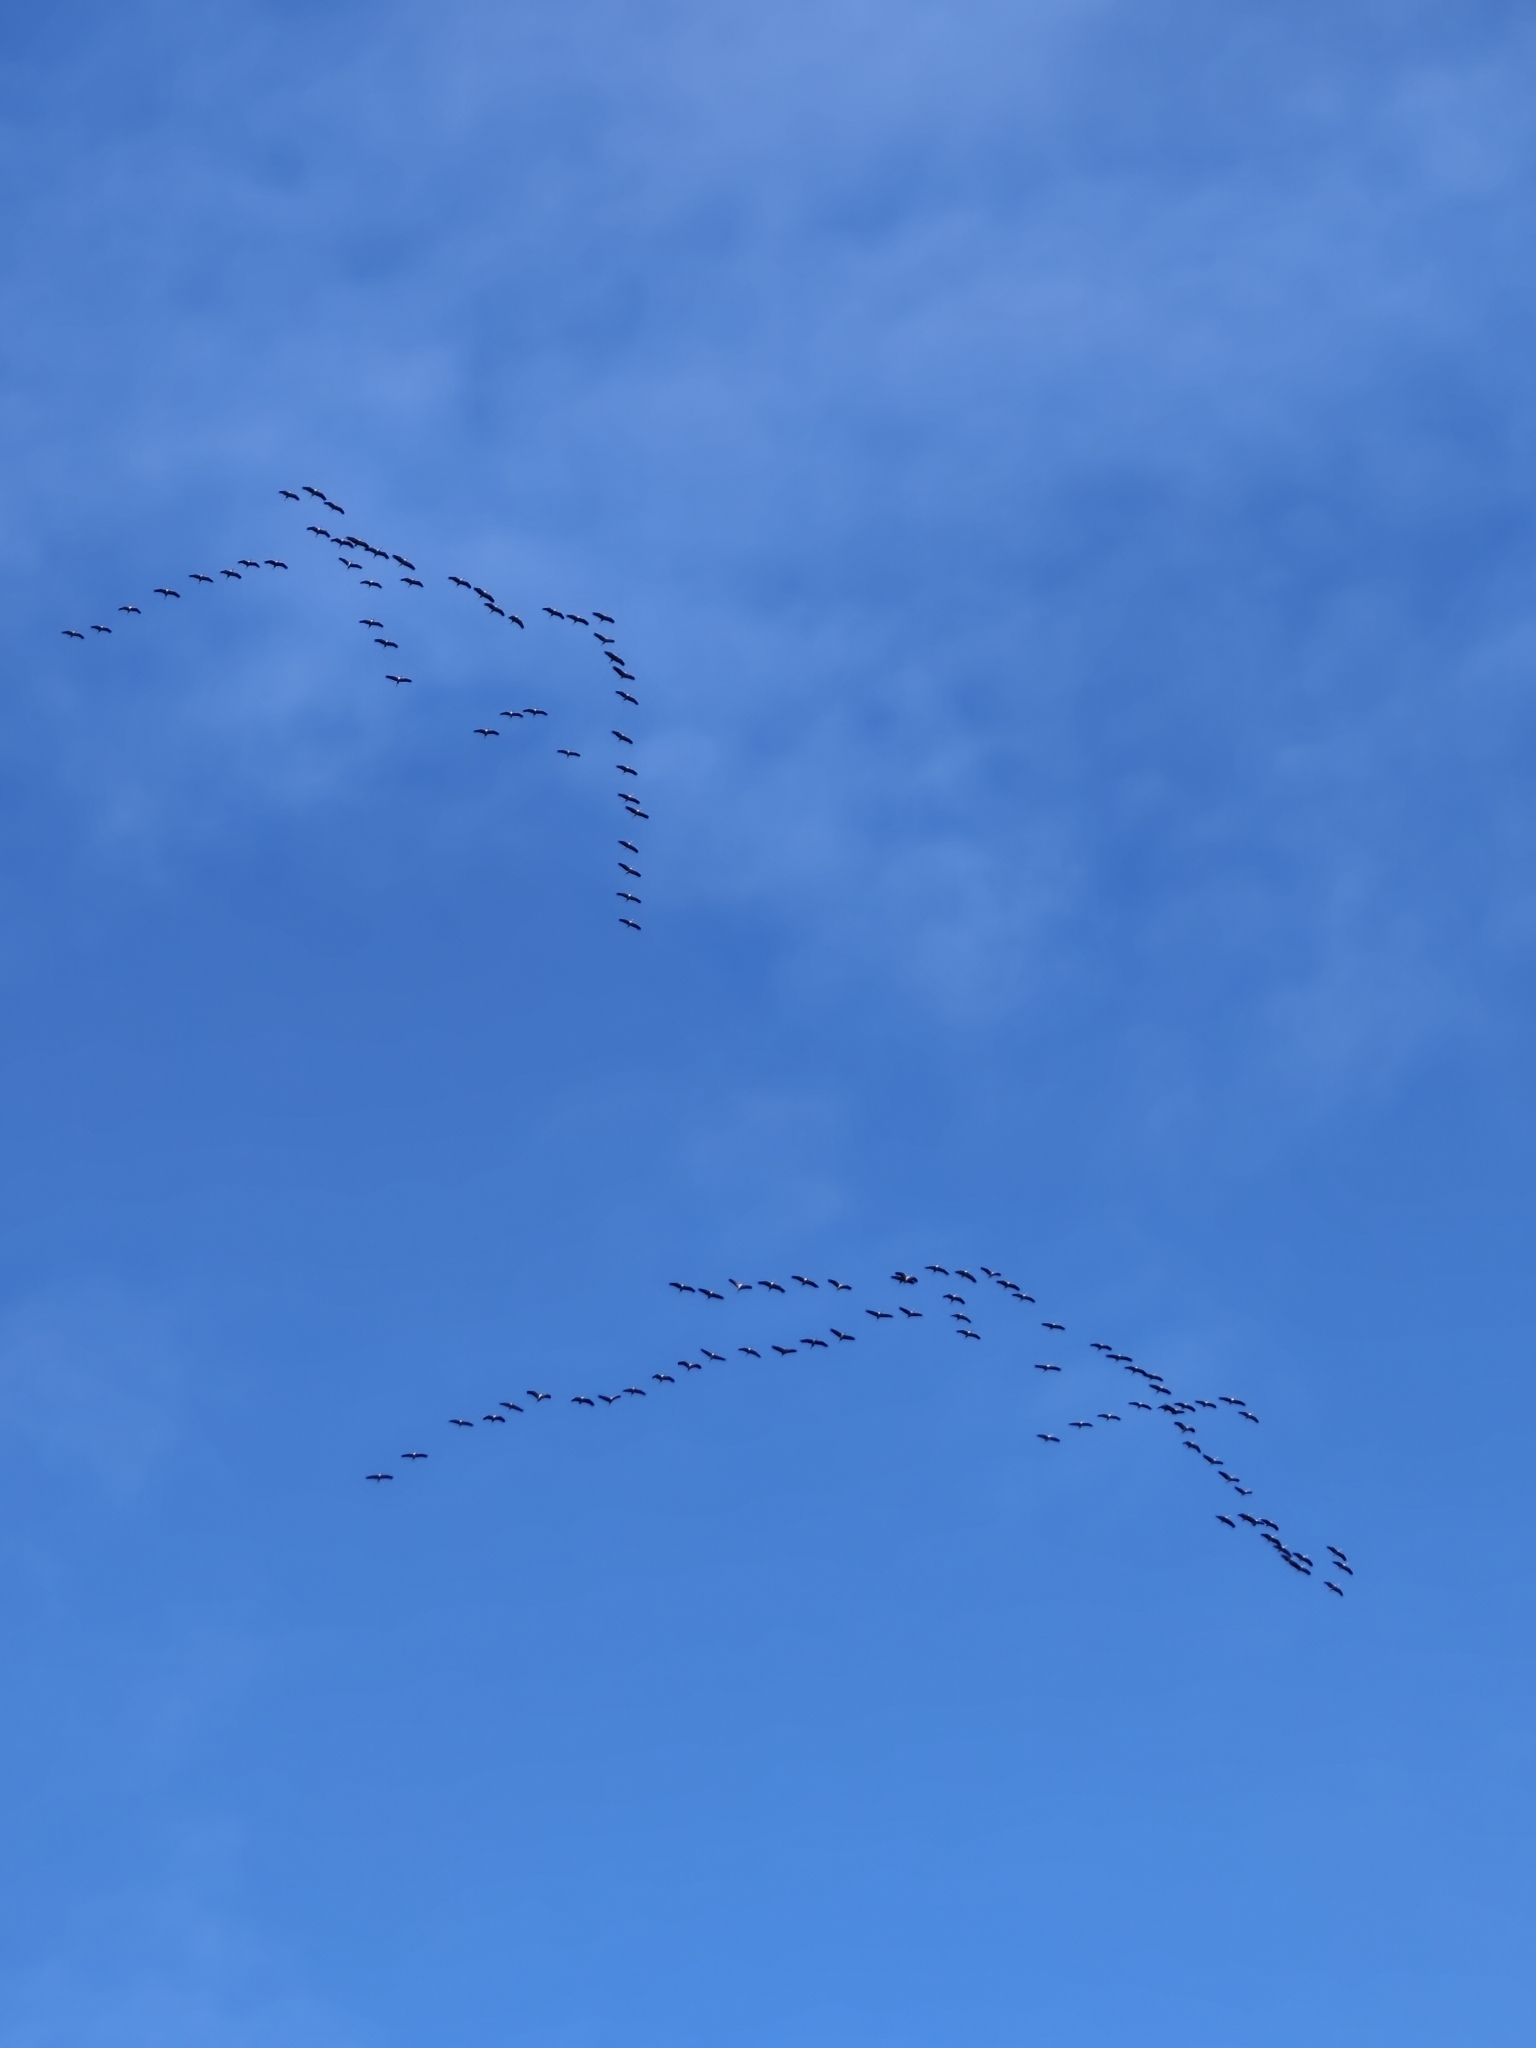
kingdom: Animalia
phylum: Chordata
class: Aves
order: Gruiformes
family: Gruidae
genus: Grus
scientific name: Grus grus
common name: Common crane
